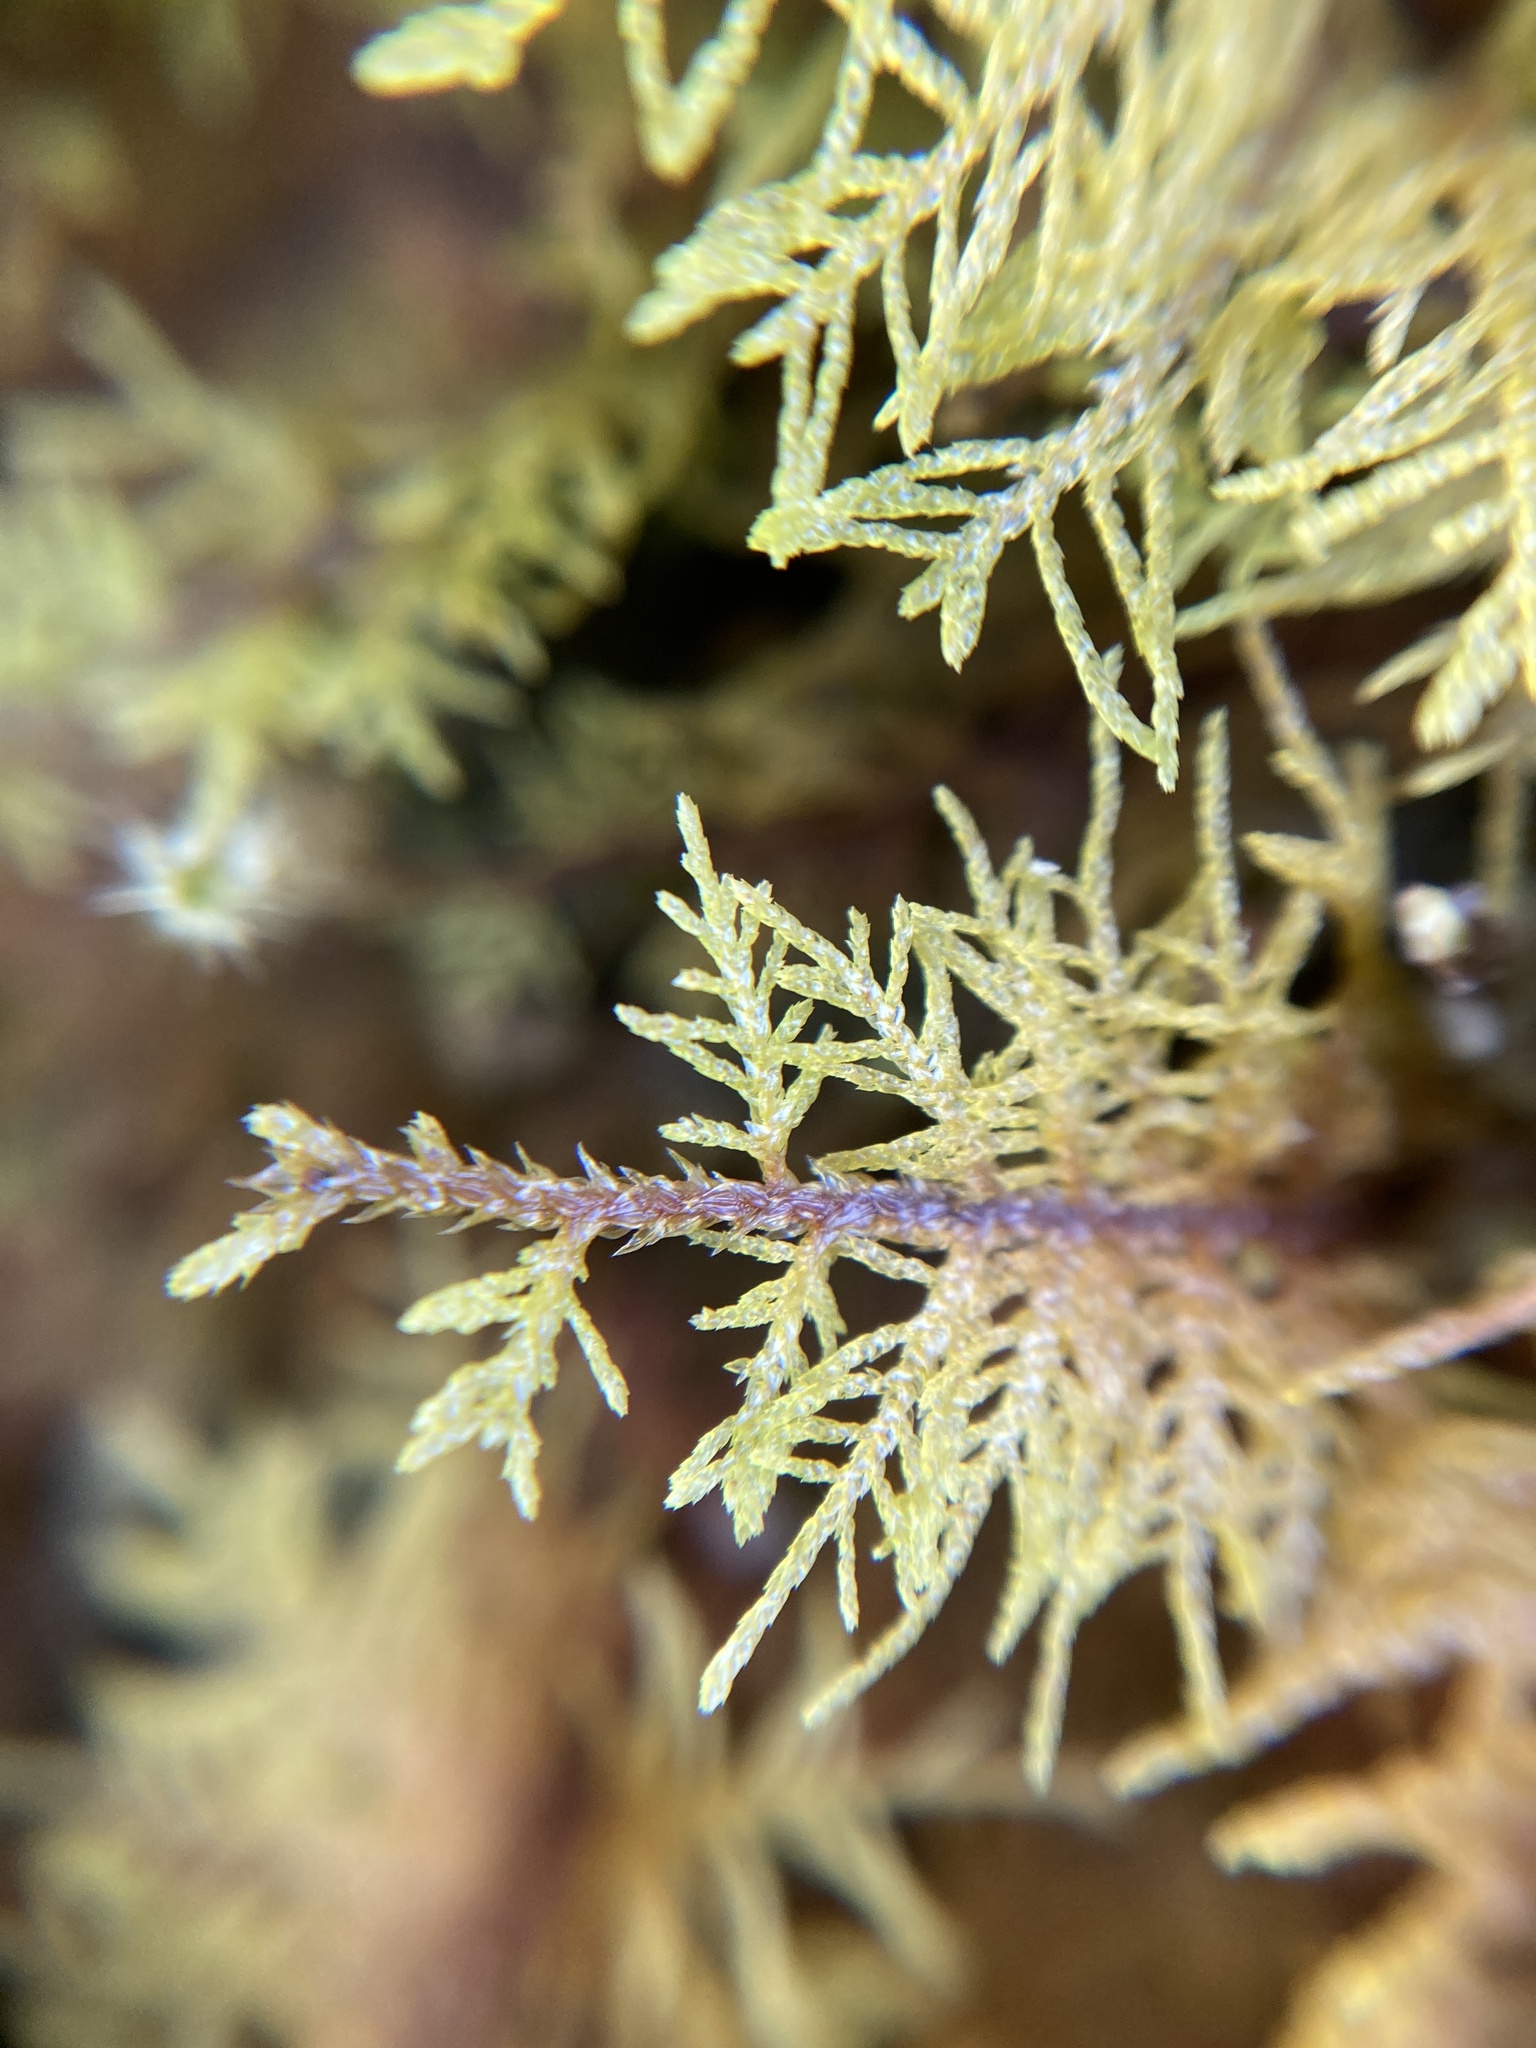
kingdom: Plantae
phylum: Bryophyta
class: Bryopsida
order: Hypnales
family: Thuidiaceae
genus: Thuidium
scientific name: Thuidium tamariscinum
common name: Common tamarisk-moss
